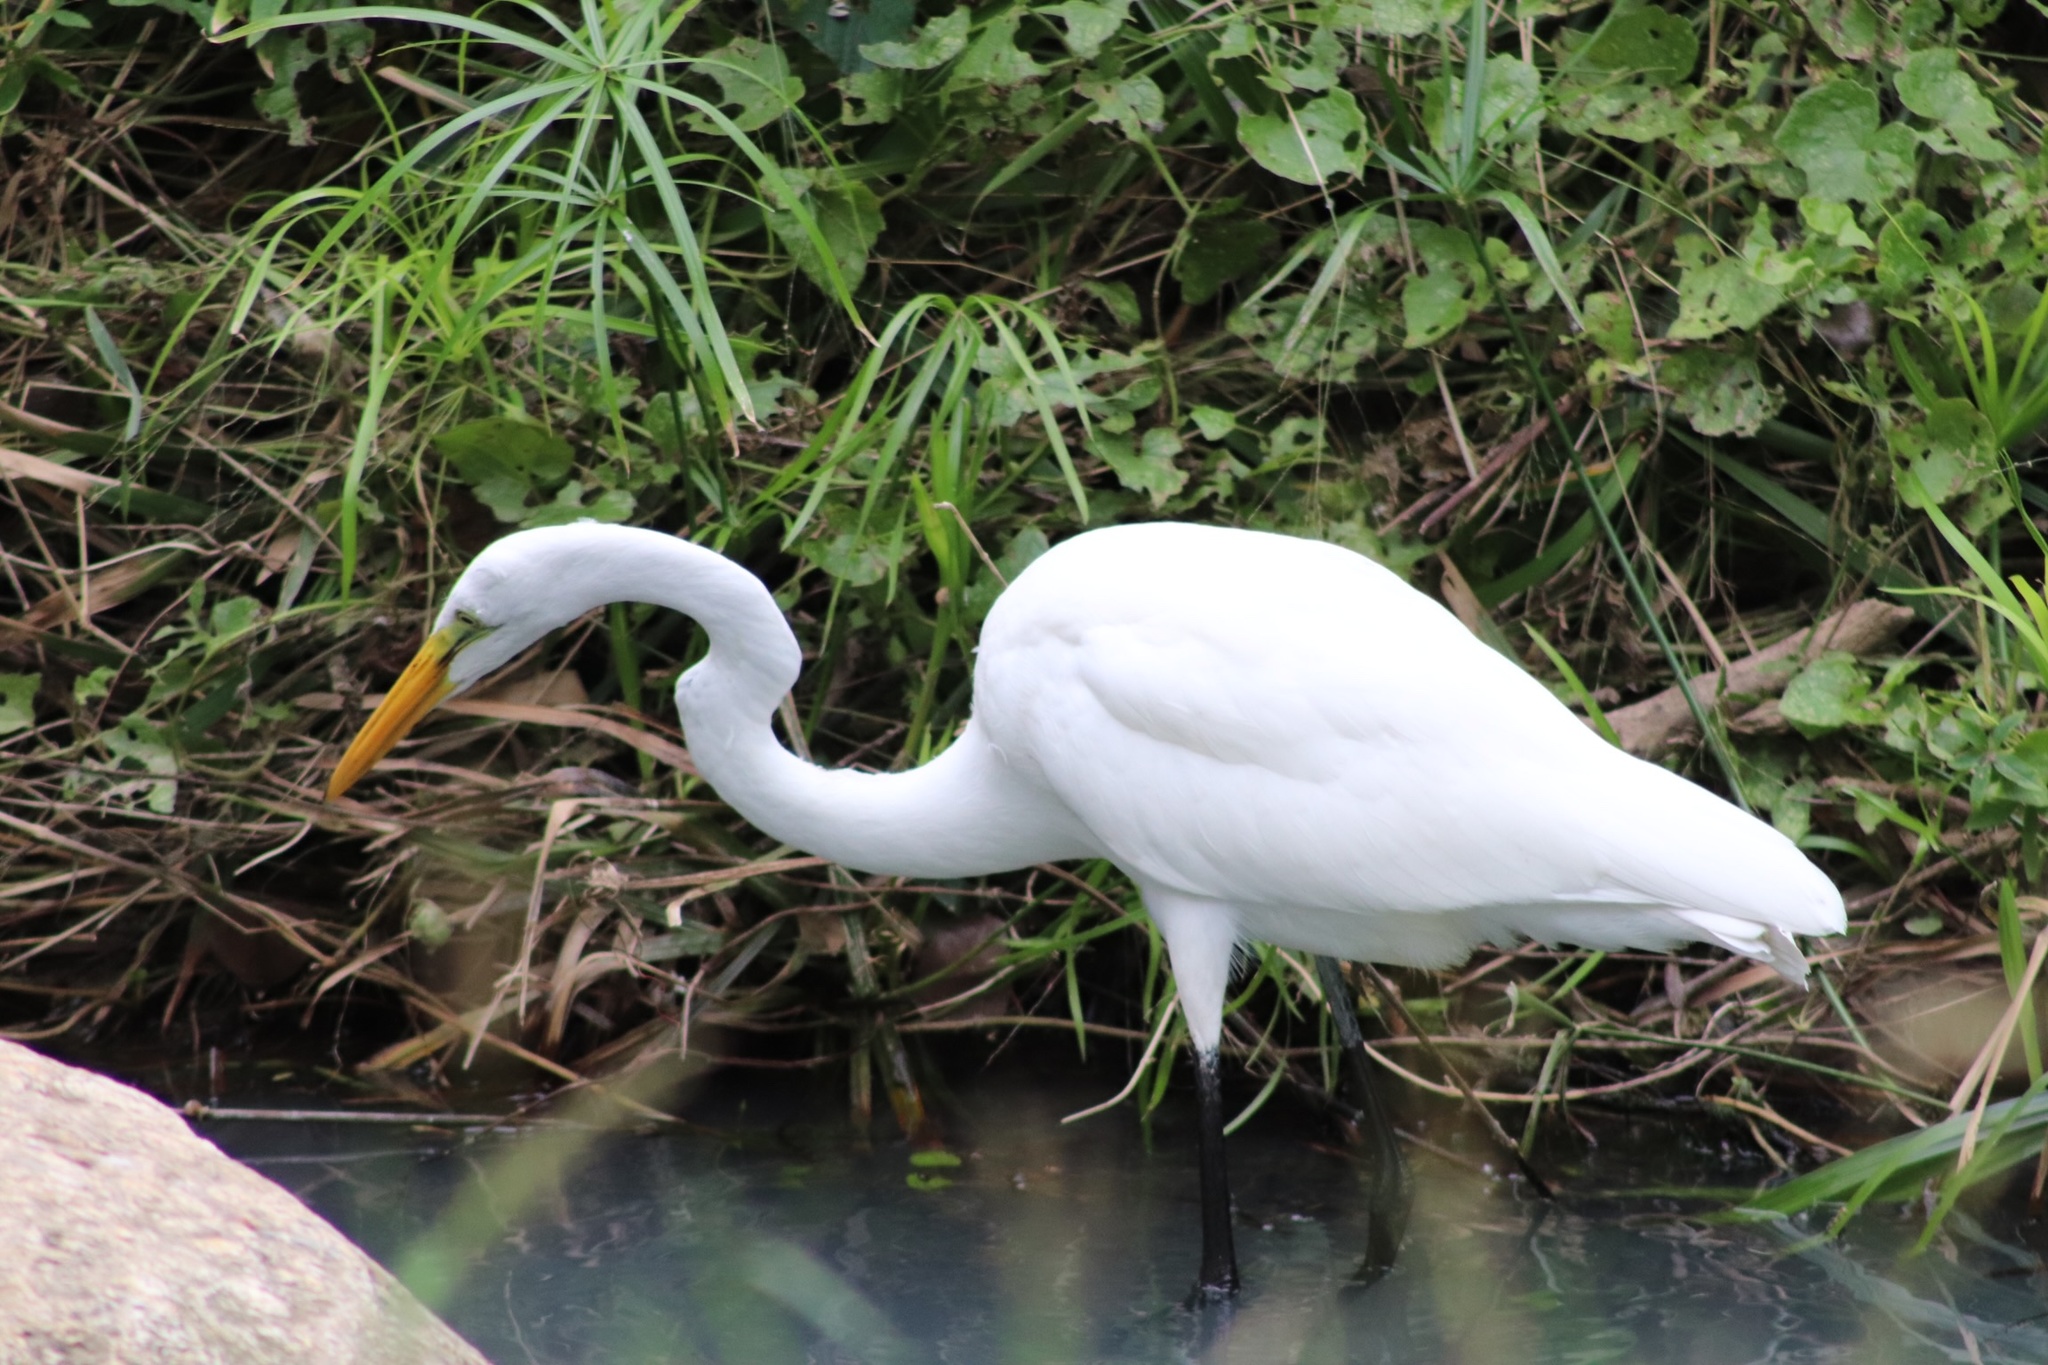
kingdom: Animalia
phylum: Chordata
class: Aves
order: Pelecaniformes
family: Ardeidae
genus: Ardea
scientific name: Ardea alba
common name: Great egret
